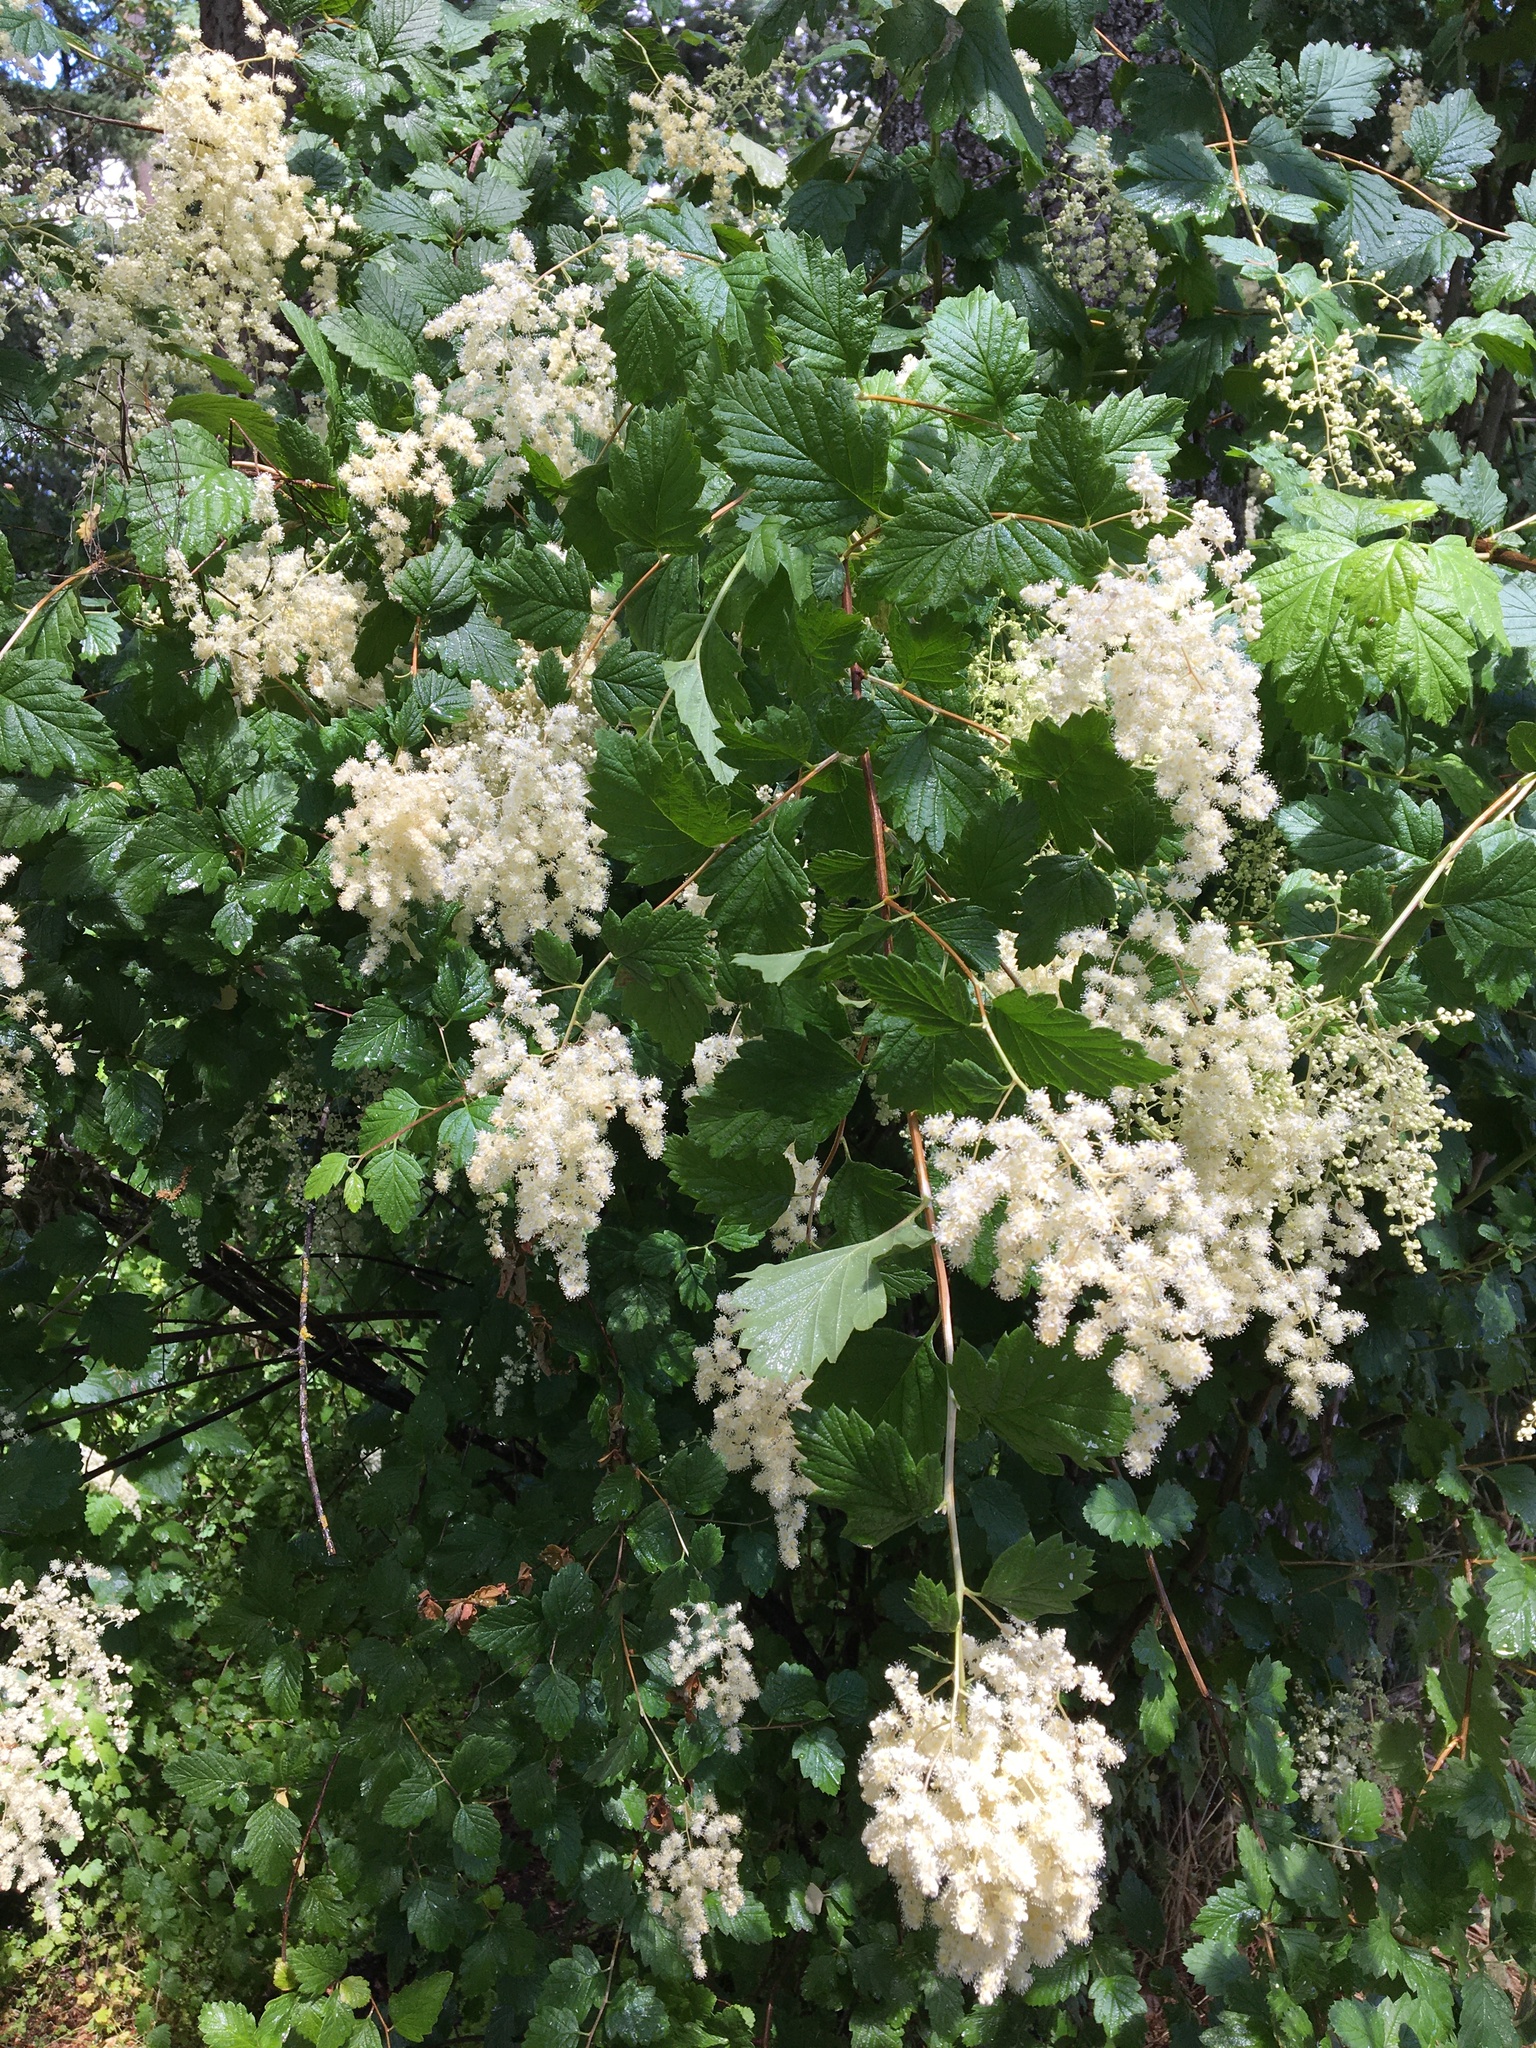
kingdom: Plantae
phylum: Tracheophyta
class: Magnoliopsida
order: Rosales
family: Rosaceae
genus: Holodiscus
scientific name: Holodiscus discolor
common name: Oceanspray
